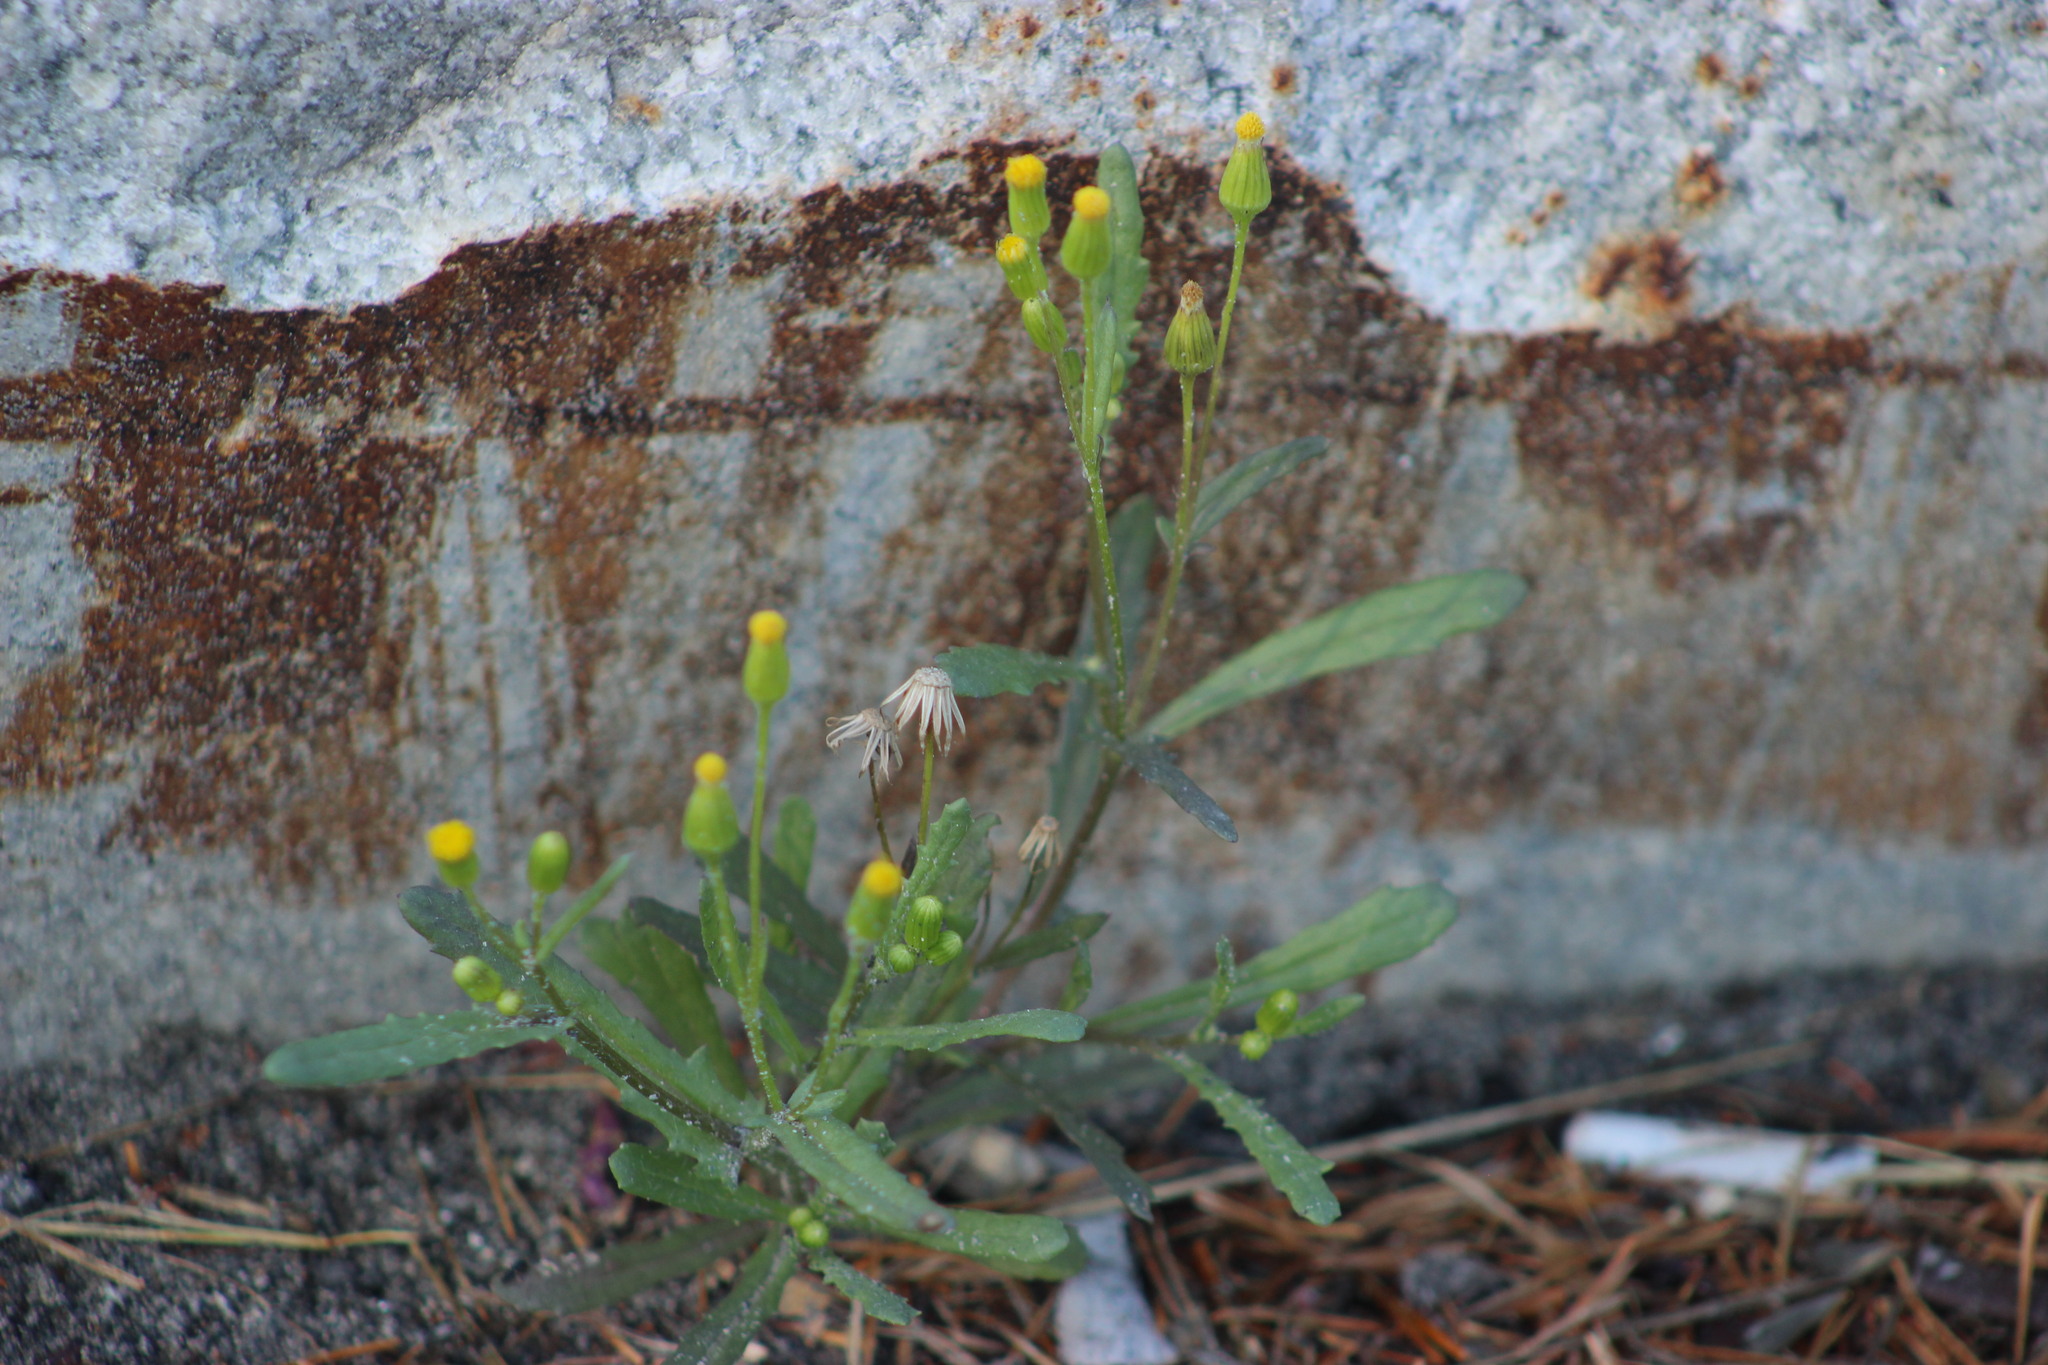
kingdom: Plantae
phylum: Tracheophyta
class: Magnoliopsida
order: Asterales
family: Asteraceae
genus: Senecio
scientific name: Senecio dubitabilis
